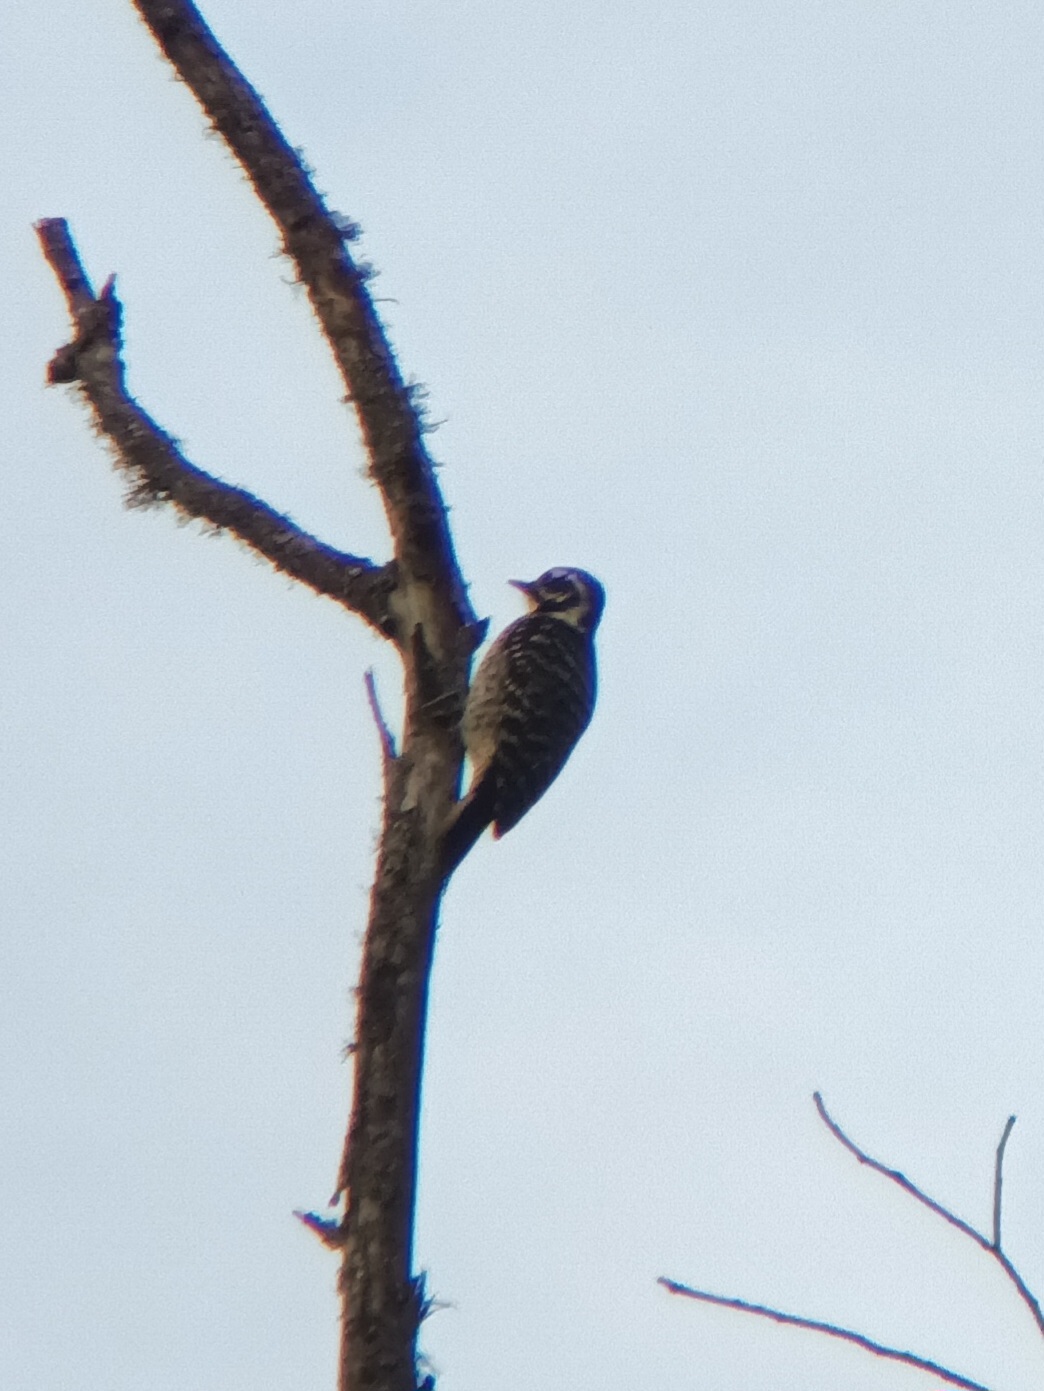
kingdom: Animalia
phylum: Chordata
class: Aves
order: Piciformes
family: Picidae
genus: Dryobates
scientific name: Dryobates nuttallii
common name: Nuttall's woodpecker
